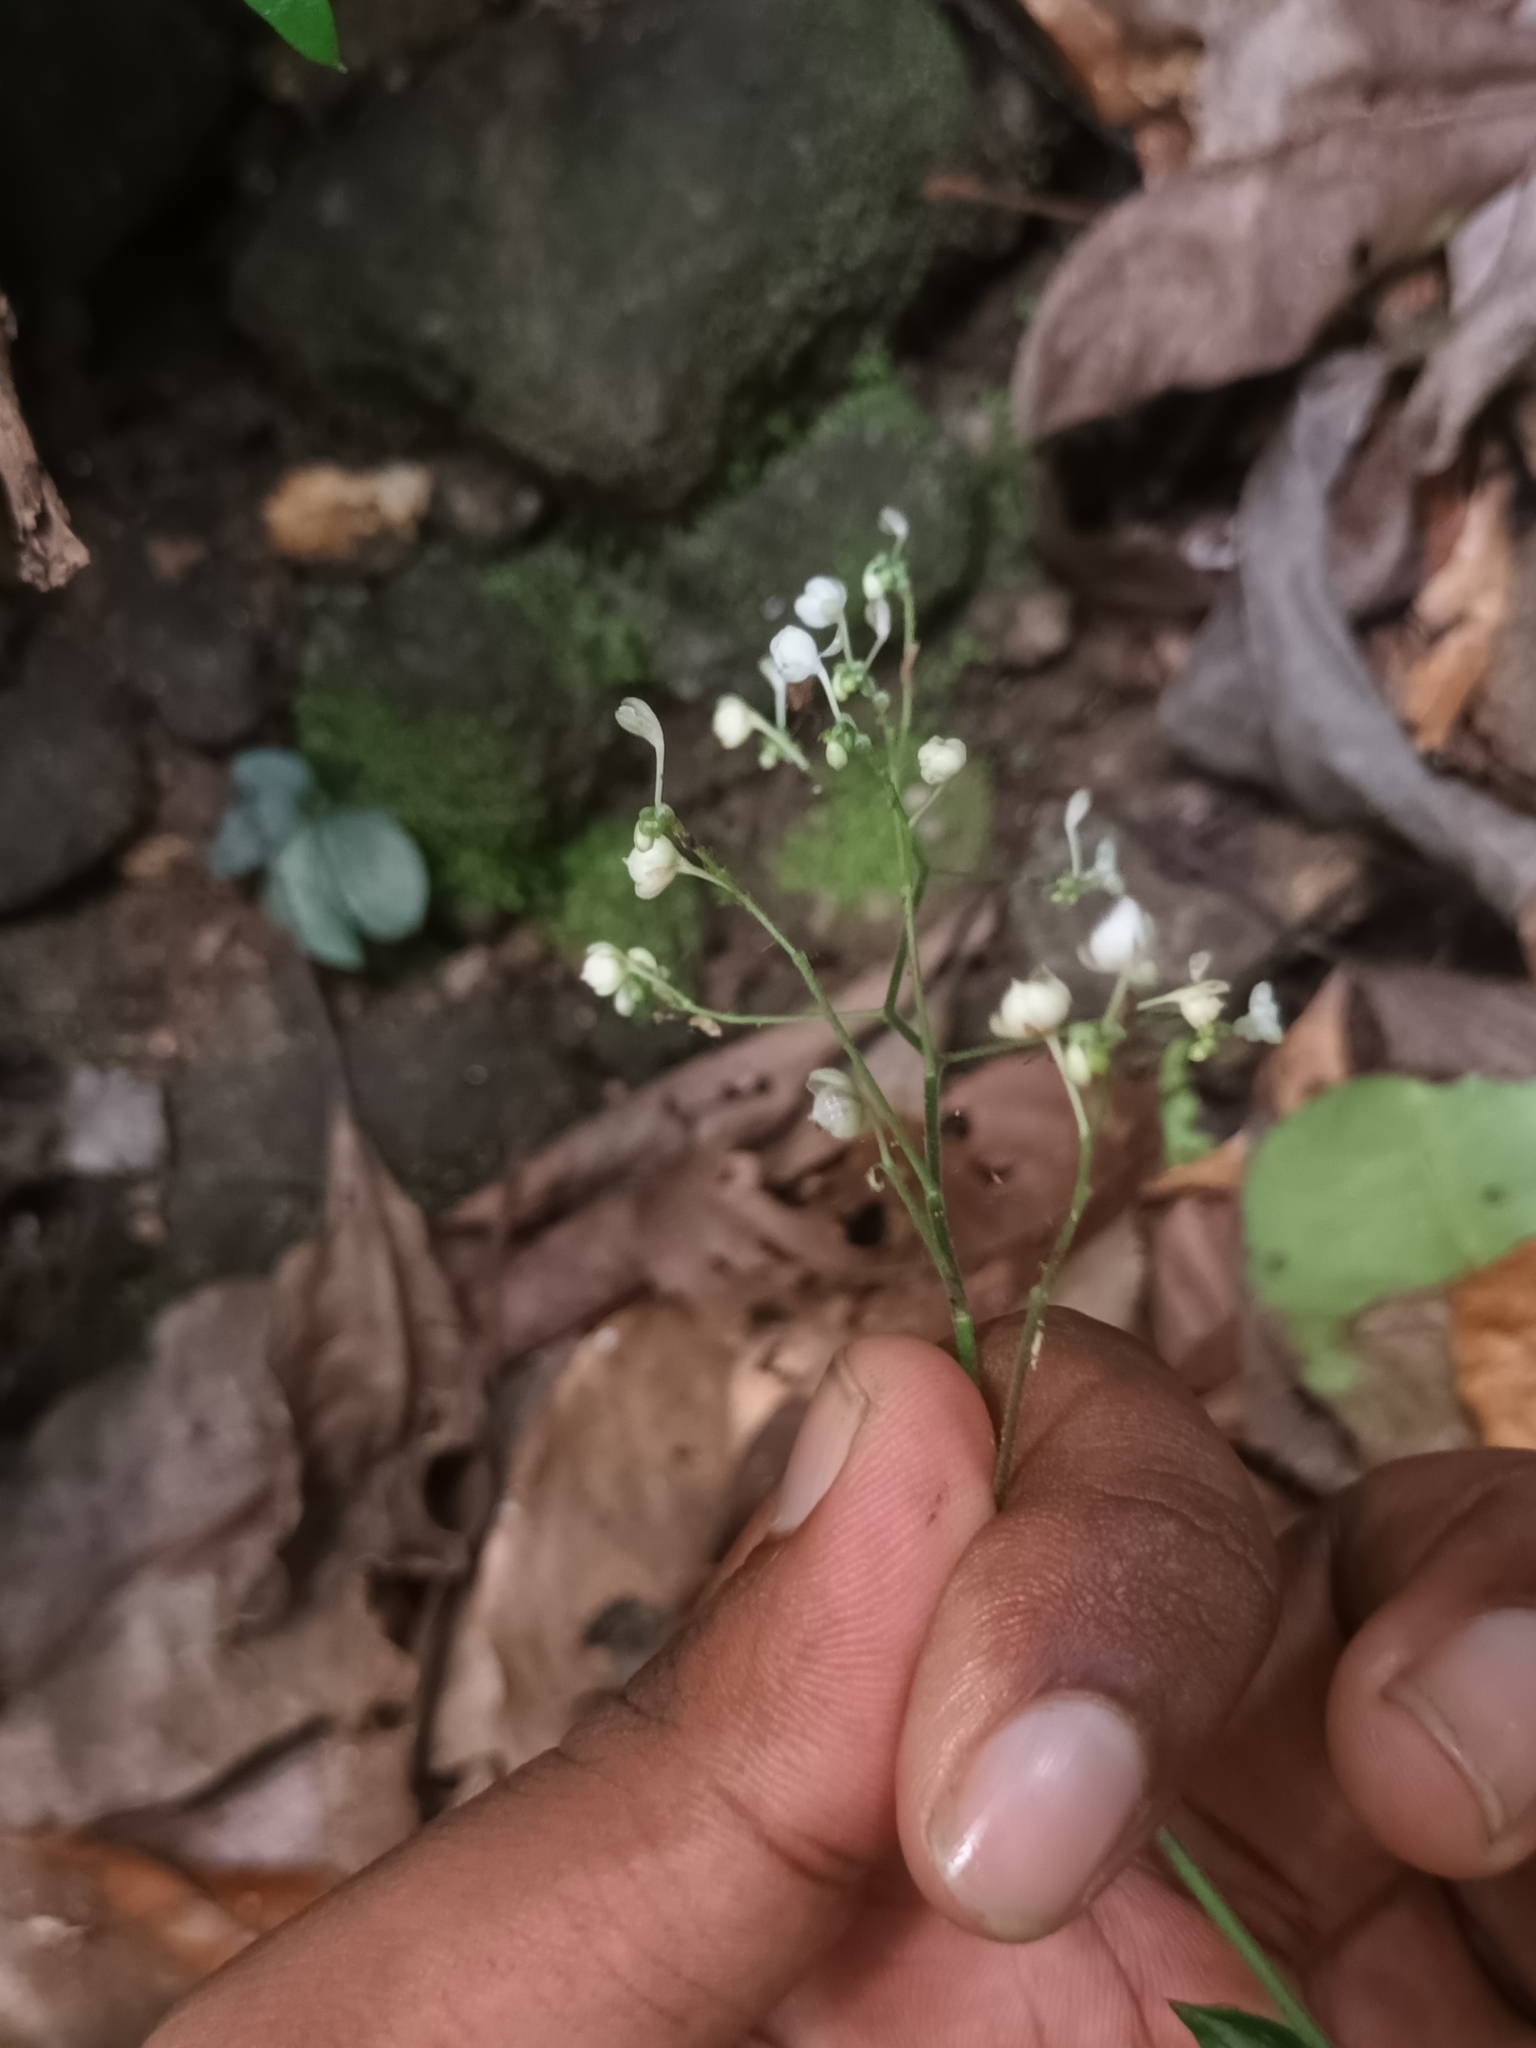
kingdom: Plantae
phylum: Tracheophyta
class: Liliopsida
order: Commelinales
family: Commelinaceae
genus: Dictyospermum
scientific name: Dictyospermum montanum
